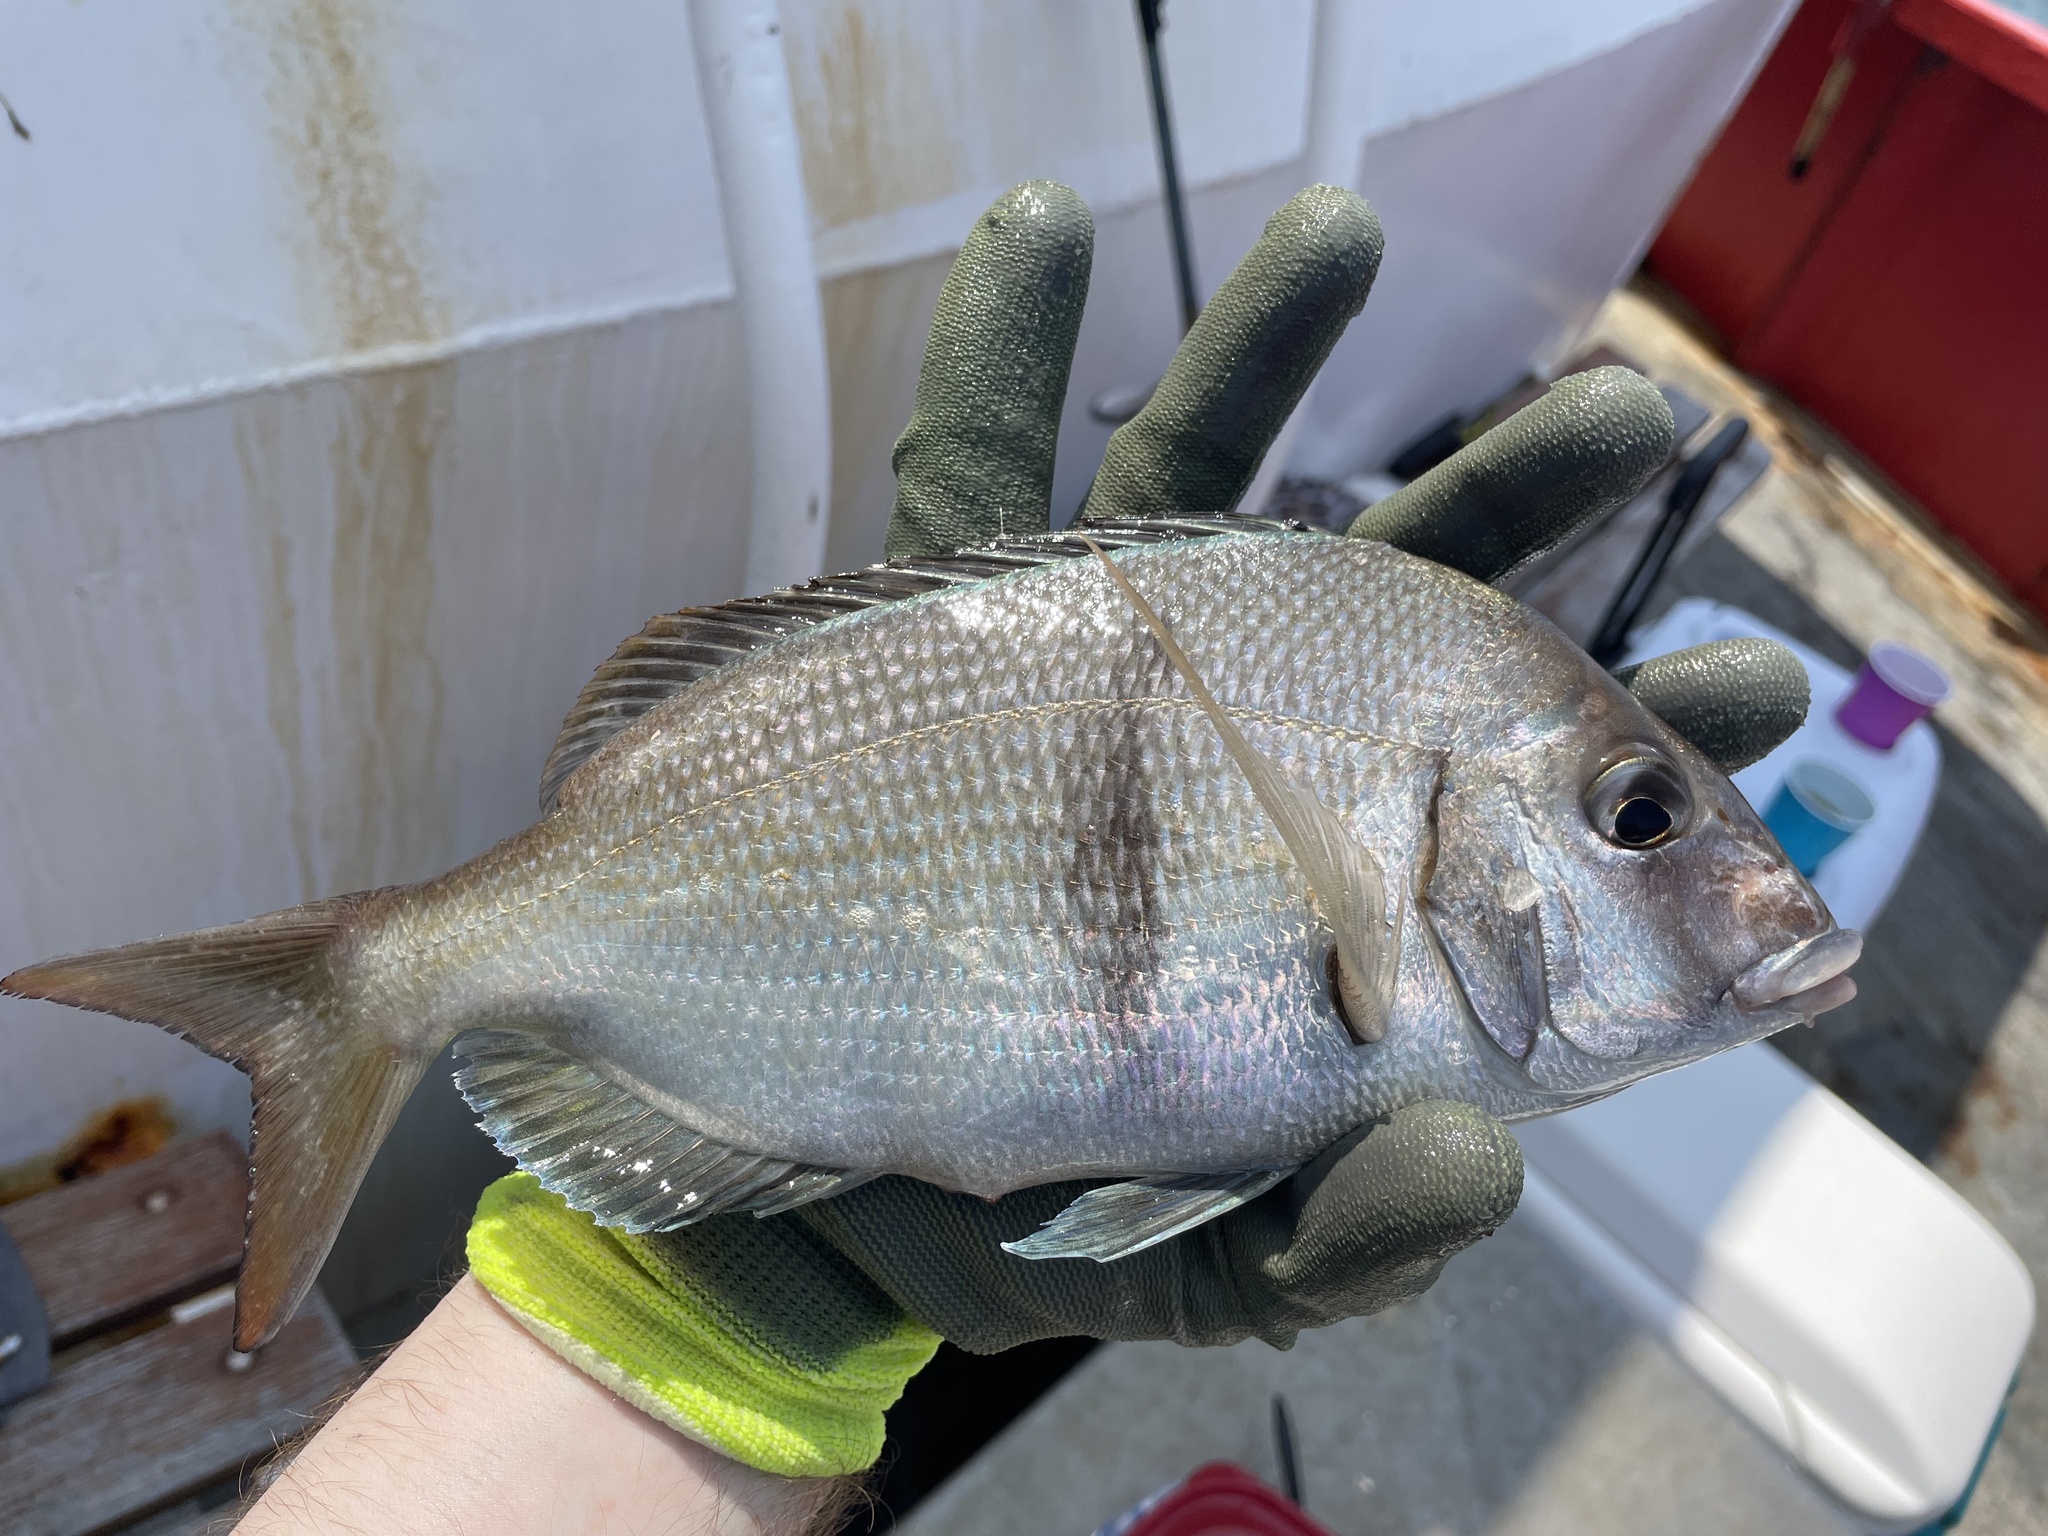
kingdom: Animalia
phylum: Chordata
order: Perciformes
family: Sparidae
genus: Stenotomus
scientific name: Stenotomus chrysops
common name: Scup
